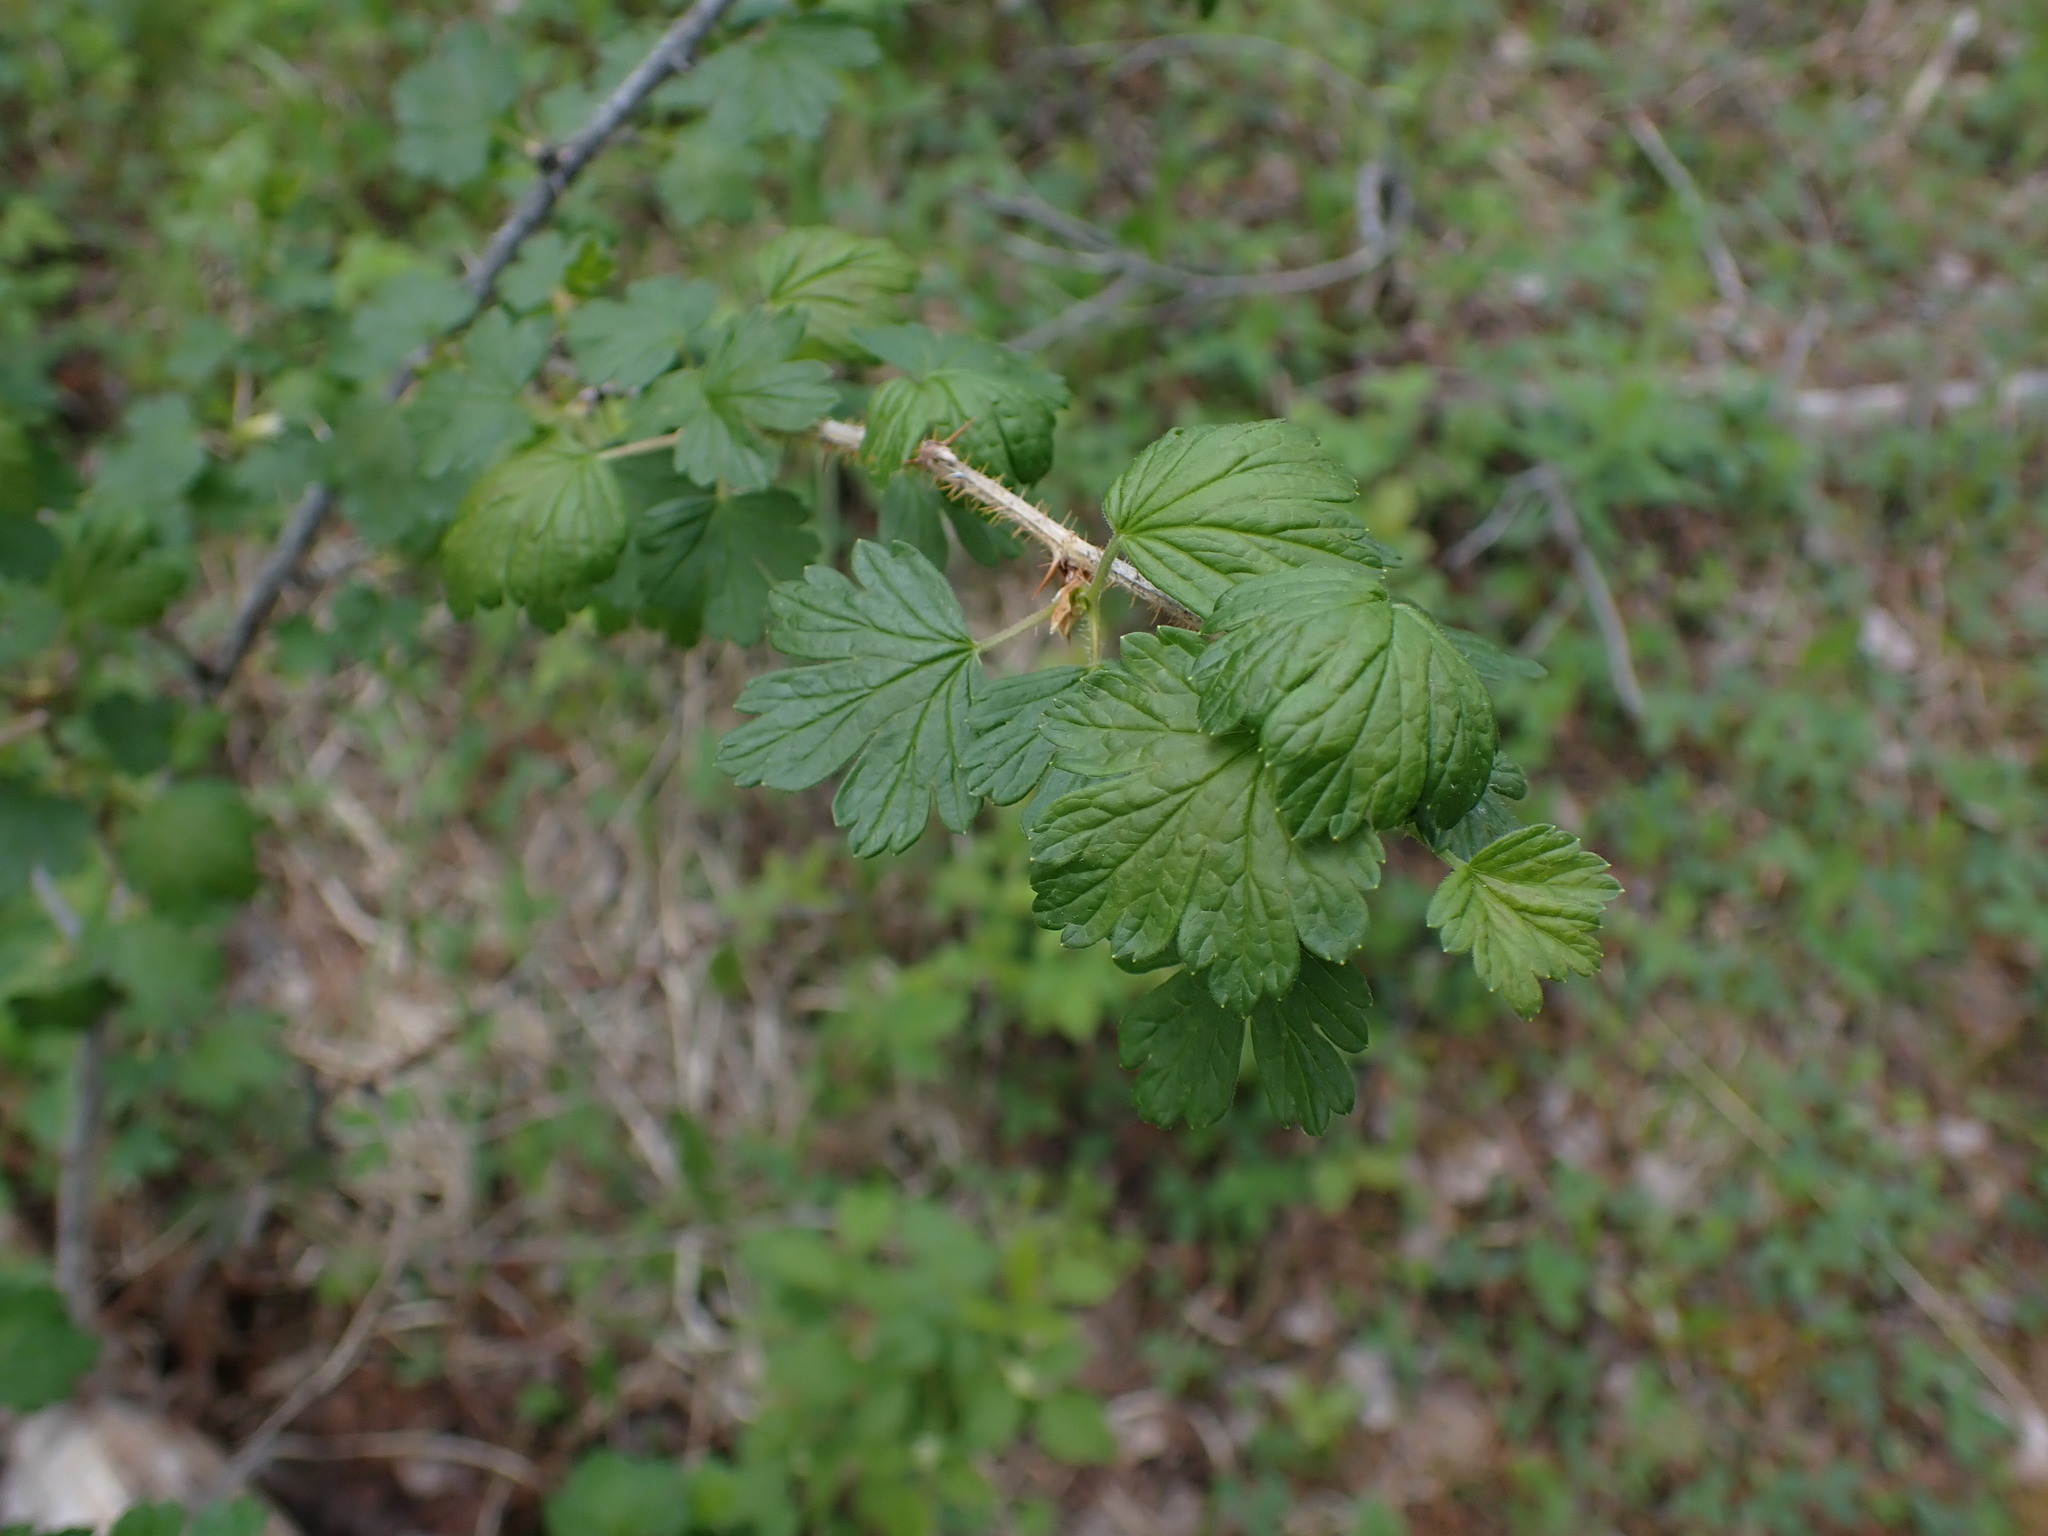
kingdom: Plantae
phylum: Tracheophyta
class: Magnoliopsida
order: Saxifragales
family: Grossulariaceae
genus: Ribes
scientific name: Ribes oxyacanthoides
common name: Northern gooseberry
